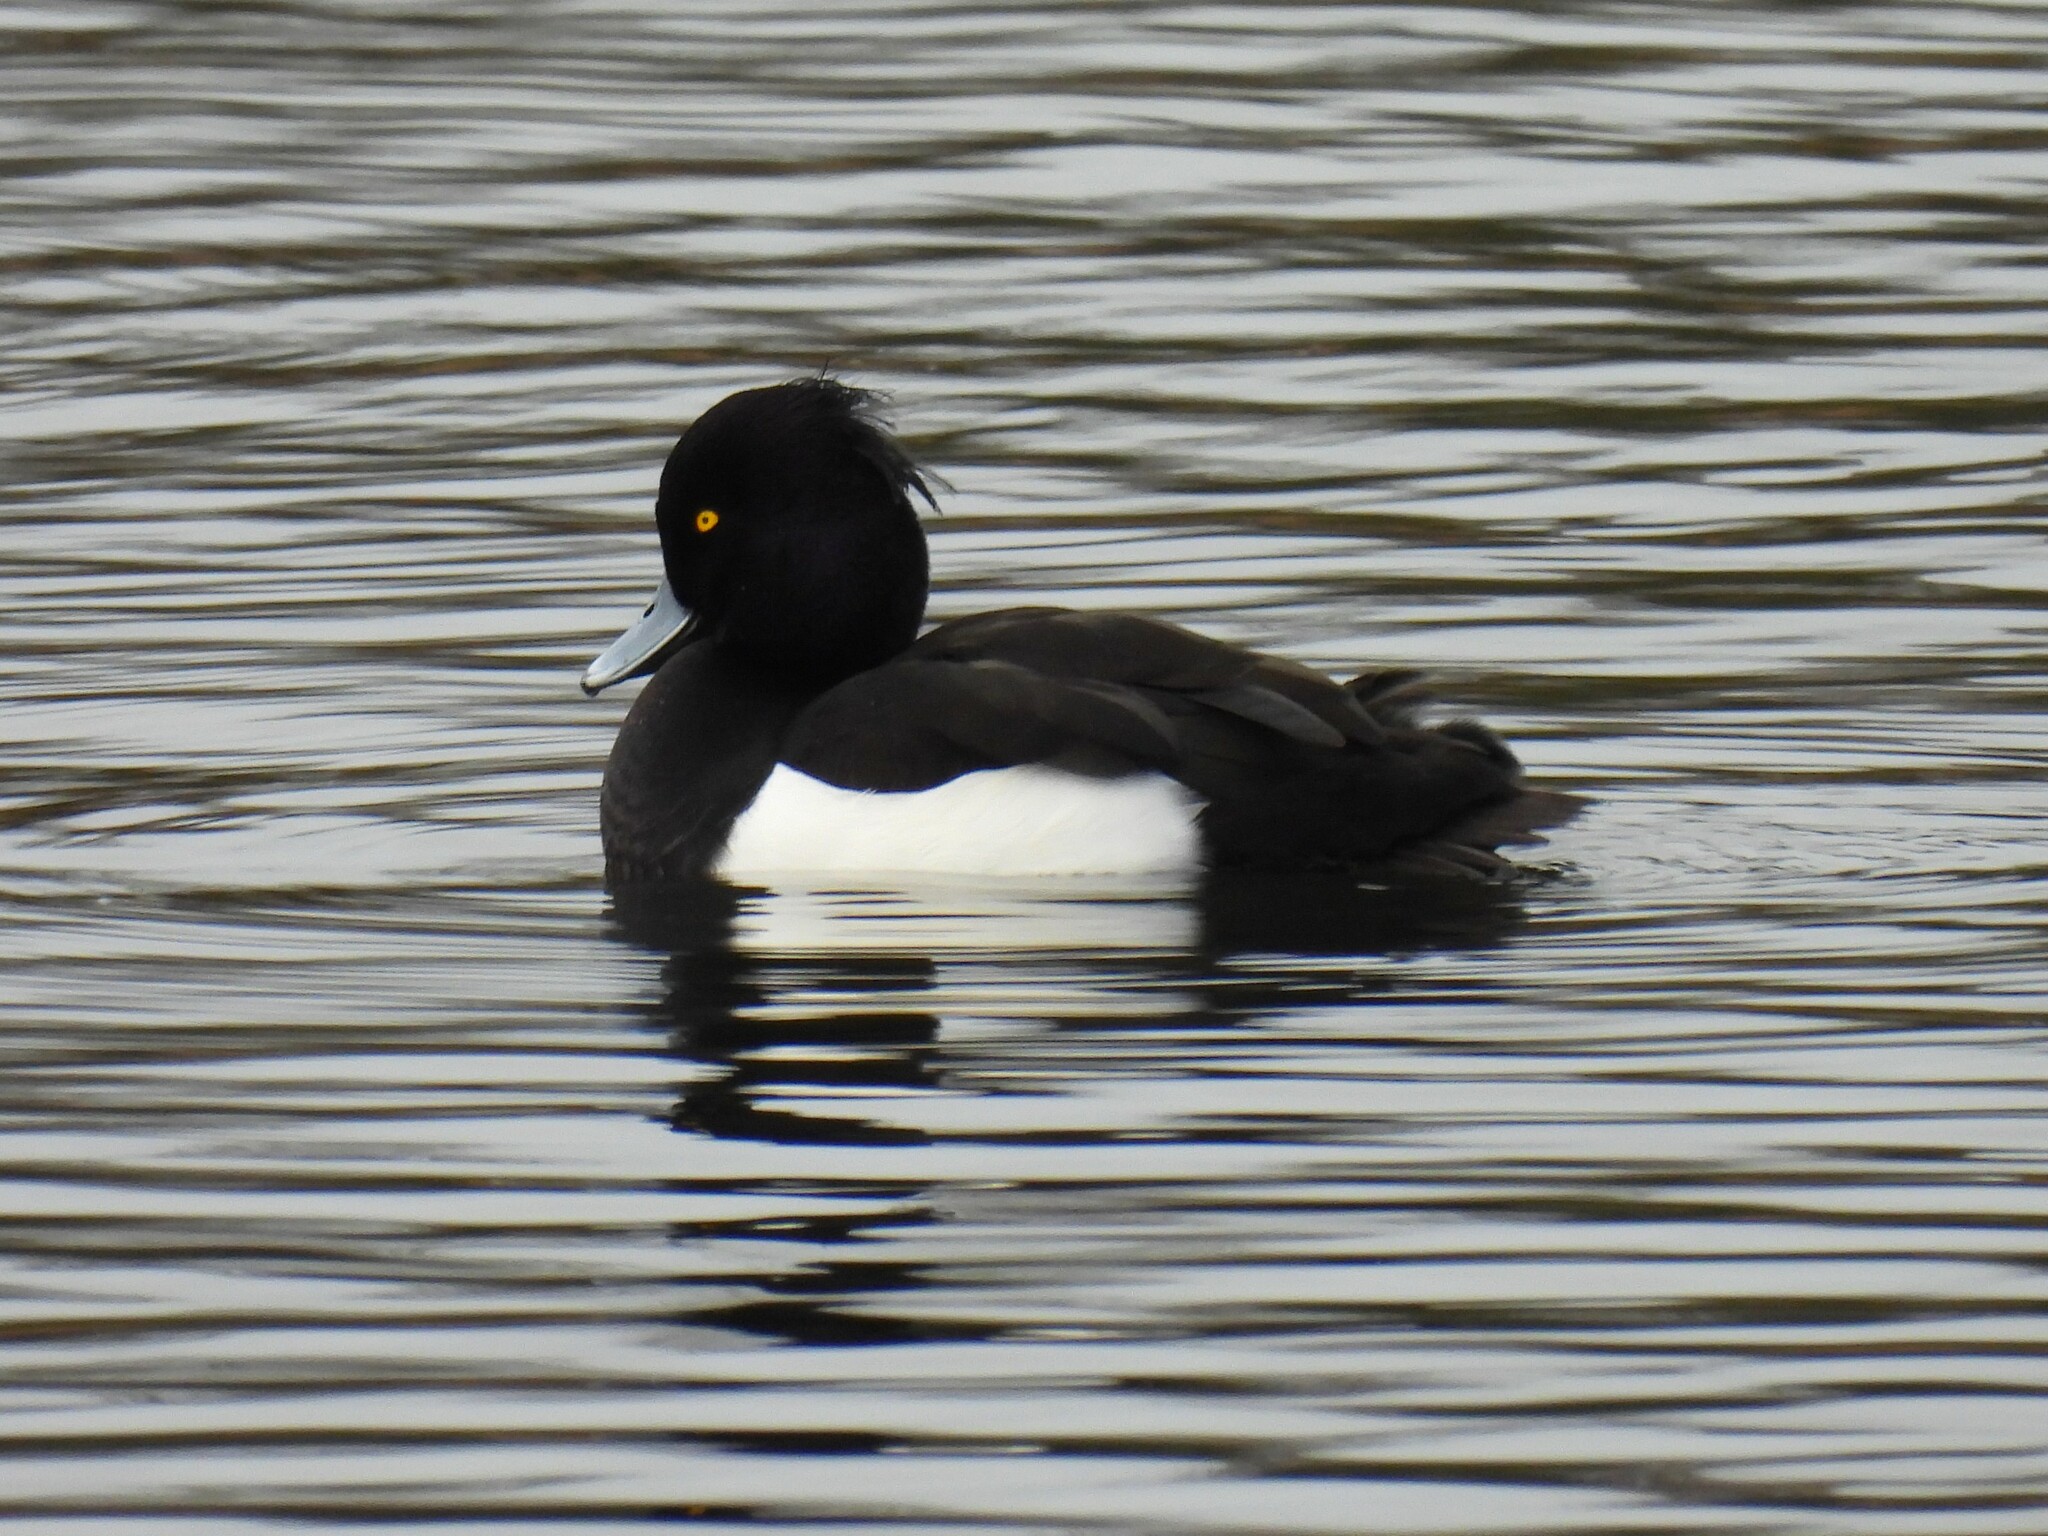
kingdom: Animalia
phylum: Chordata
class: Aves
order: Anseriformes
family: Anatidae
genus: Aythya
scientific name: Aythya fuligula
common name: Tufted duck
